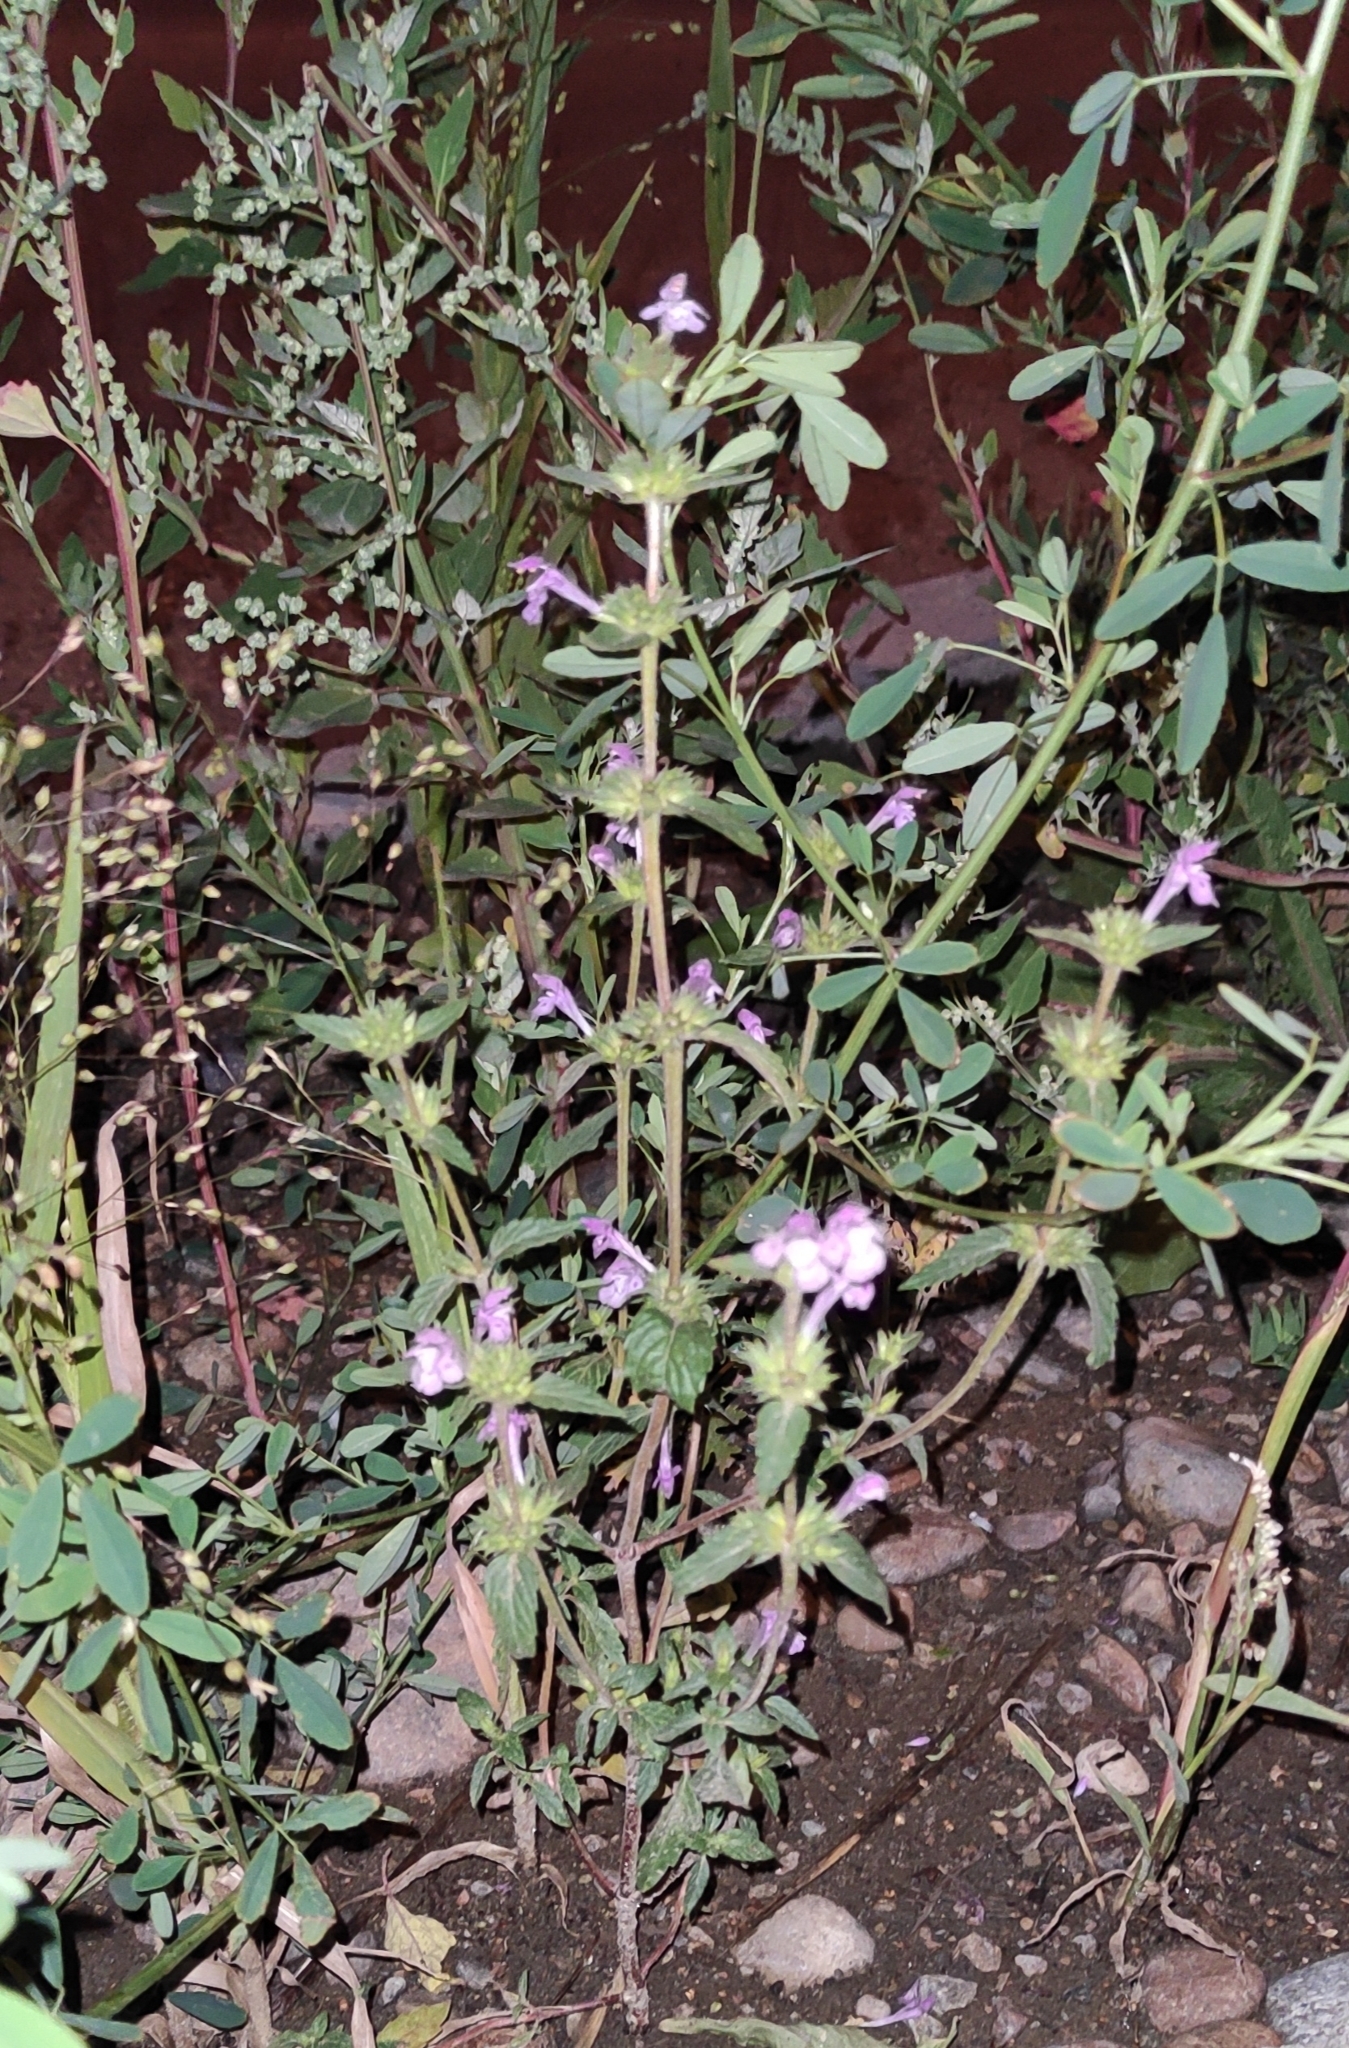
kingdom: Plantae
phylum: Tracheophyta
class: Magnoliopsida
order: Lamiales
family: Lamiaceae
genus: Galeopsis
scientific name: Galeopsis ladanum
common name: Broad-leaved hemp-nettle
